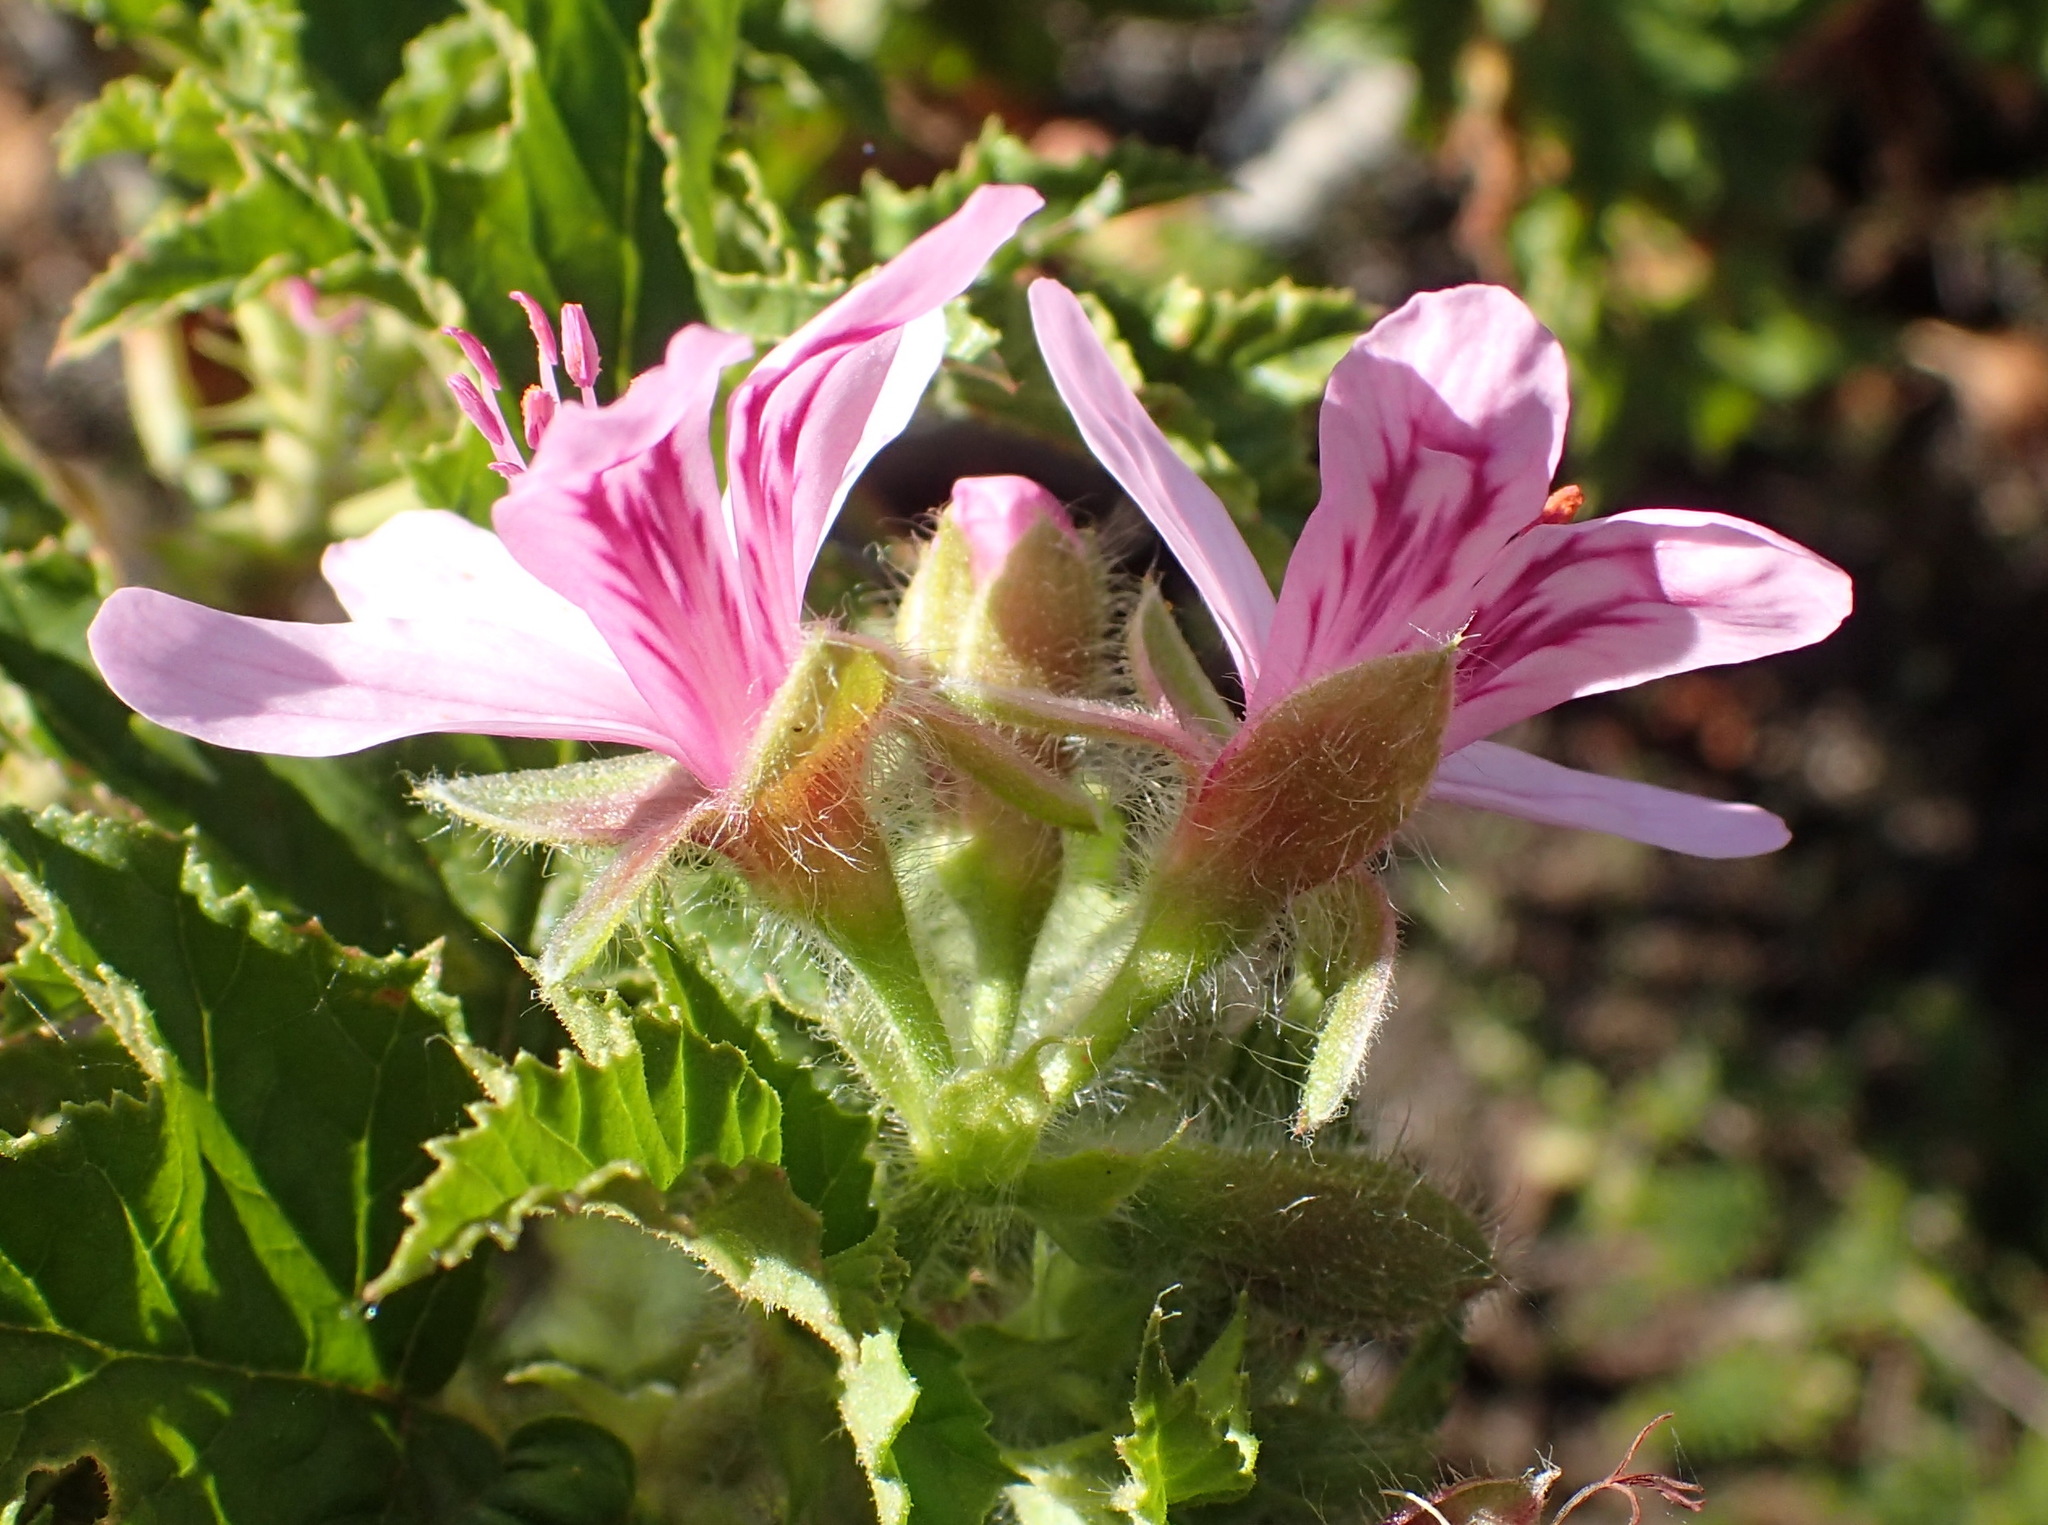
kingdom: Plantae
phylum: Tracheophyta
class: Magnoliopsida
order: Geraniales
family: Geraniaceae
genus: Pelargonium
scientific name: Pelargonium glutinosum
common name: Pheasant-foot geranium
